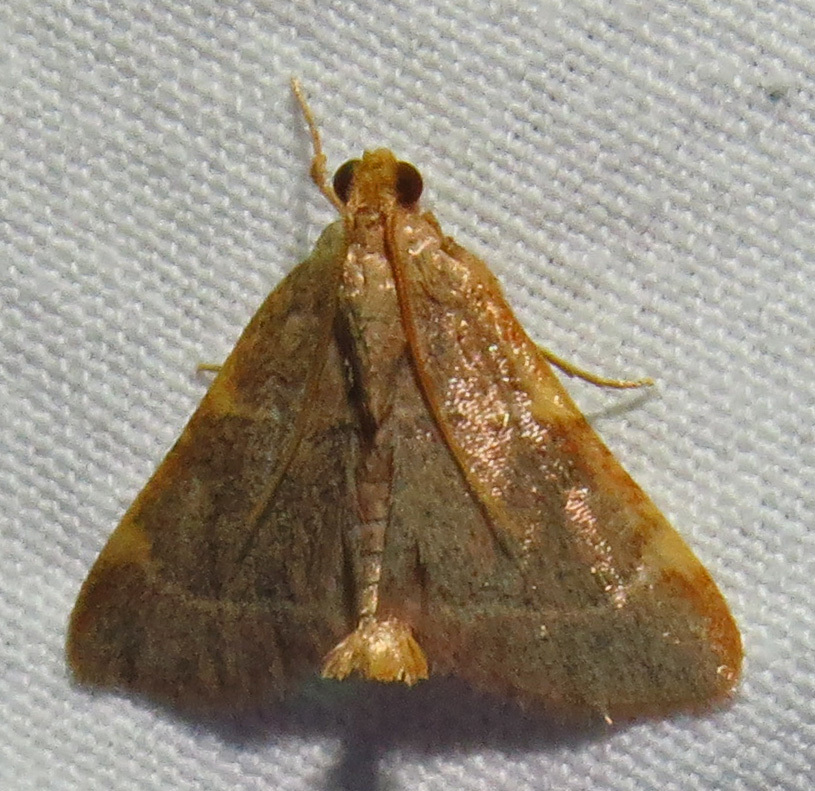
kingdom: Animalia
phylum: Arthropoda
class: Insecta
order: Lepidoptera
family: Pyralidae
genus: Hypsopygia
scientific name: Hypsopygia binodulalis
